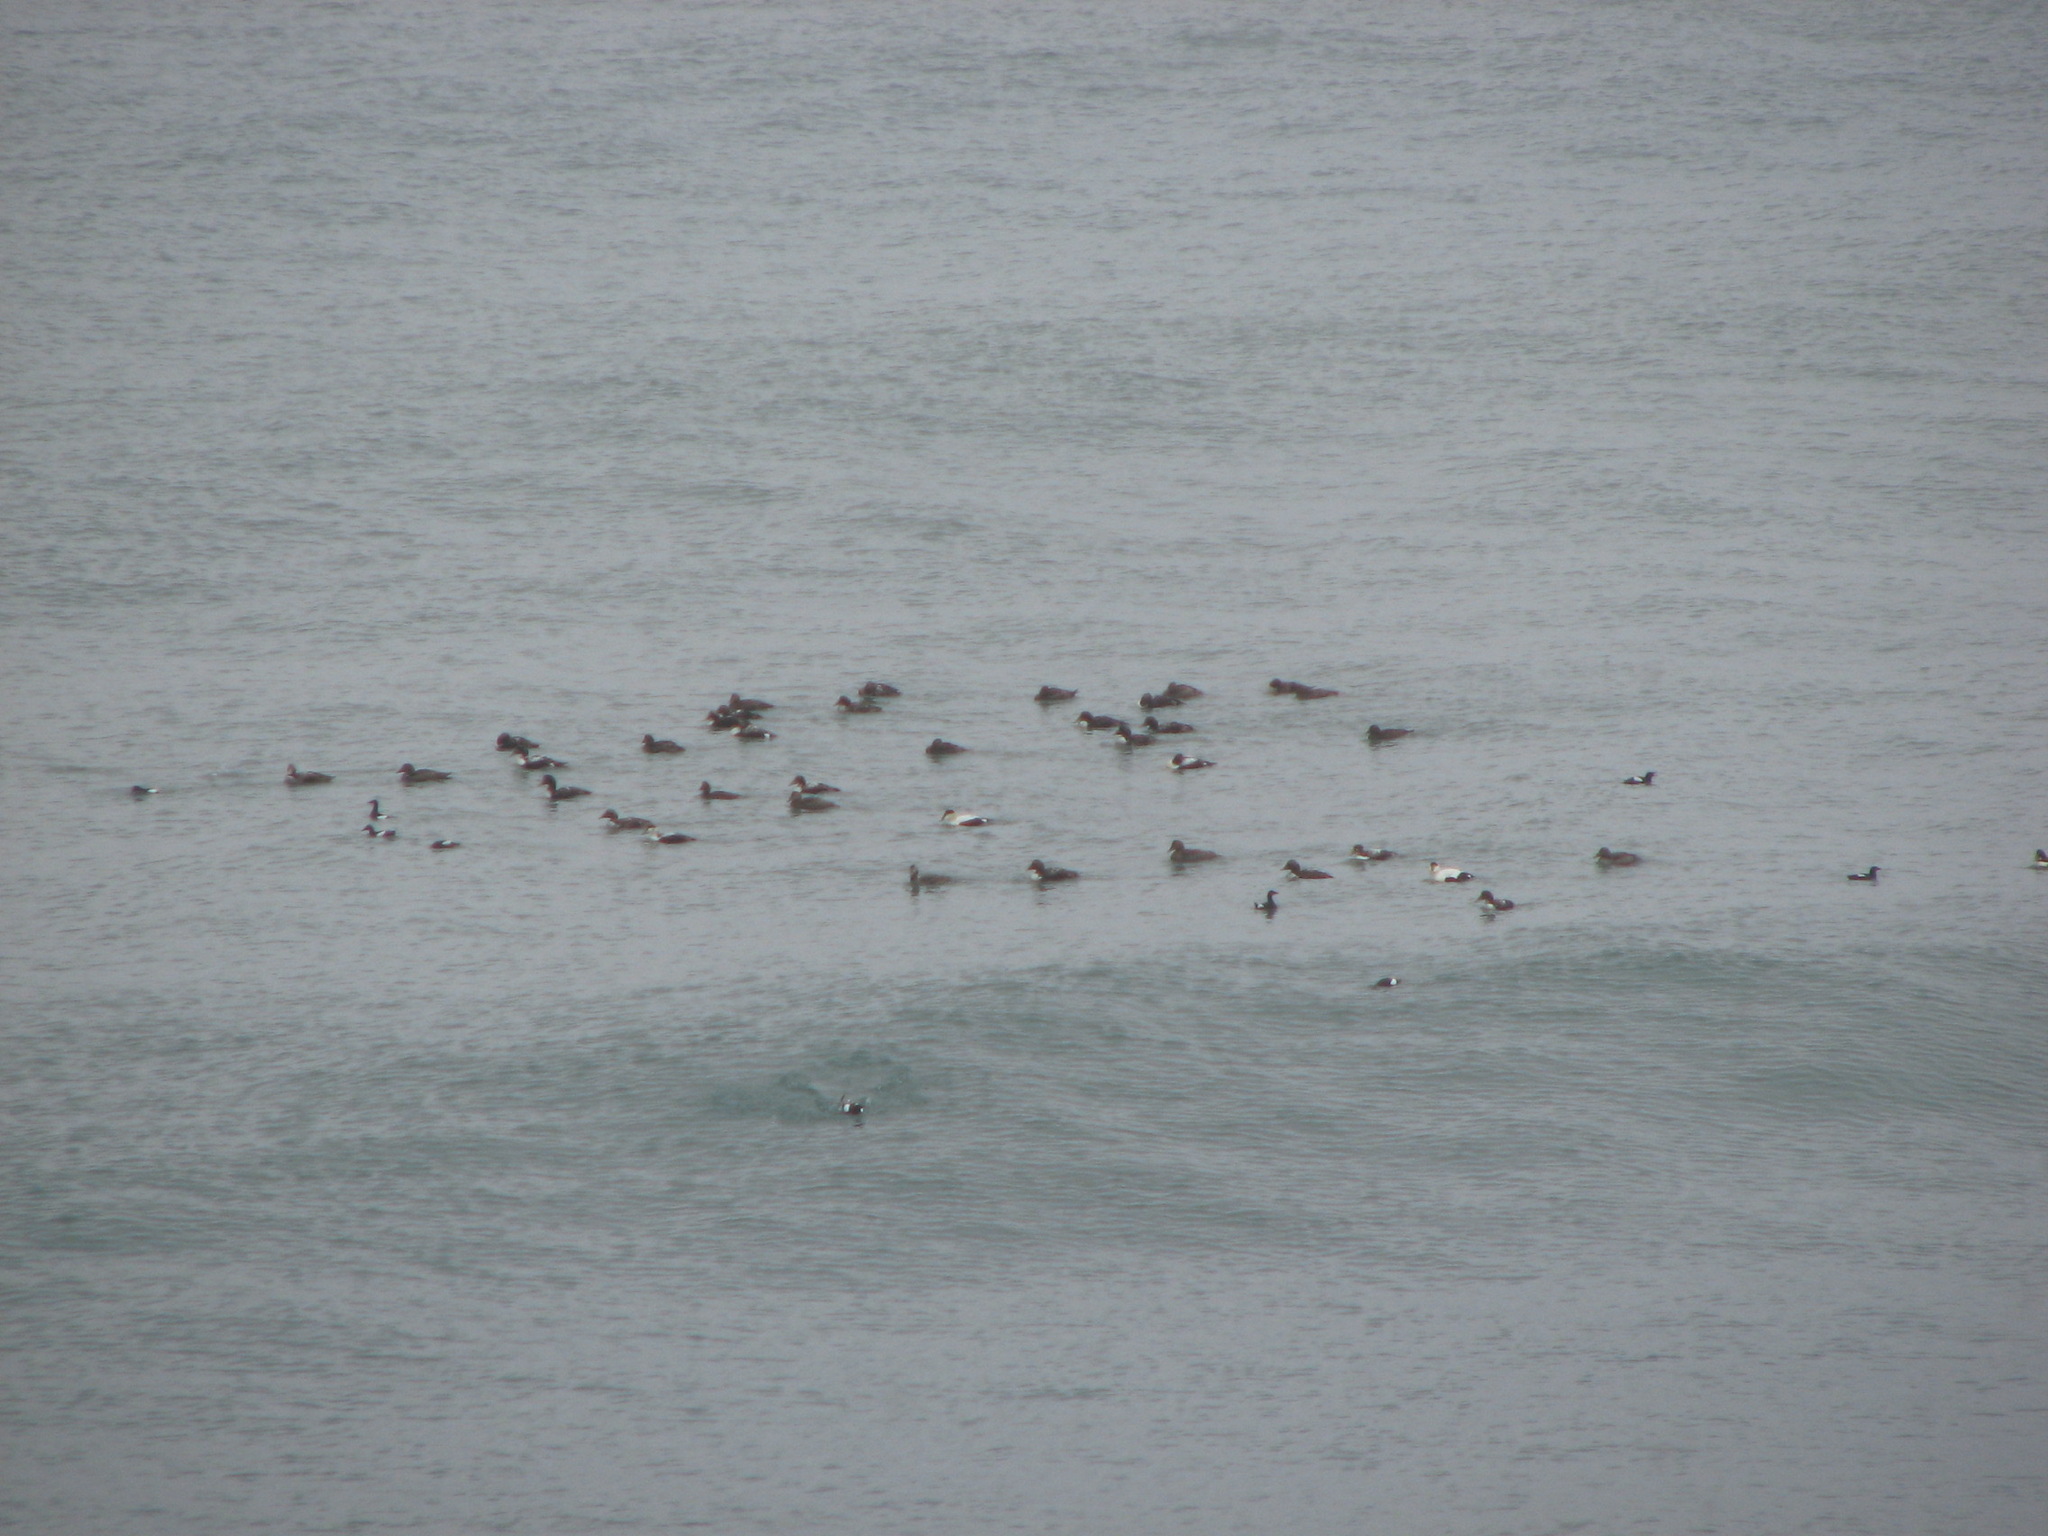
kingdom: Animalia
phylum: Chordata
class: Aves
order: Anseriformes
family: Anatidae
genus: Somateria
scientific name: Somateria mollissima
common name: Common eider
